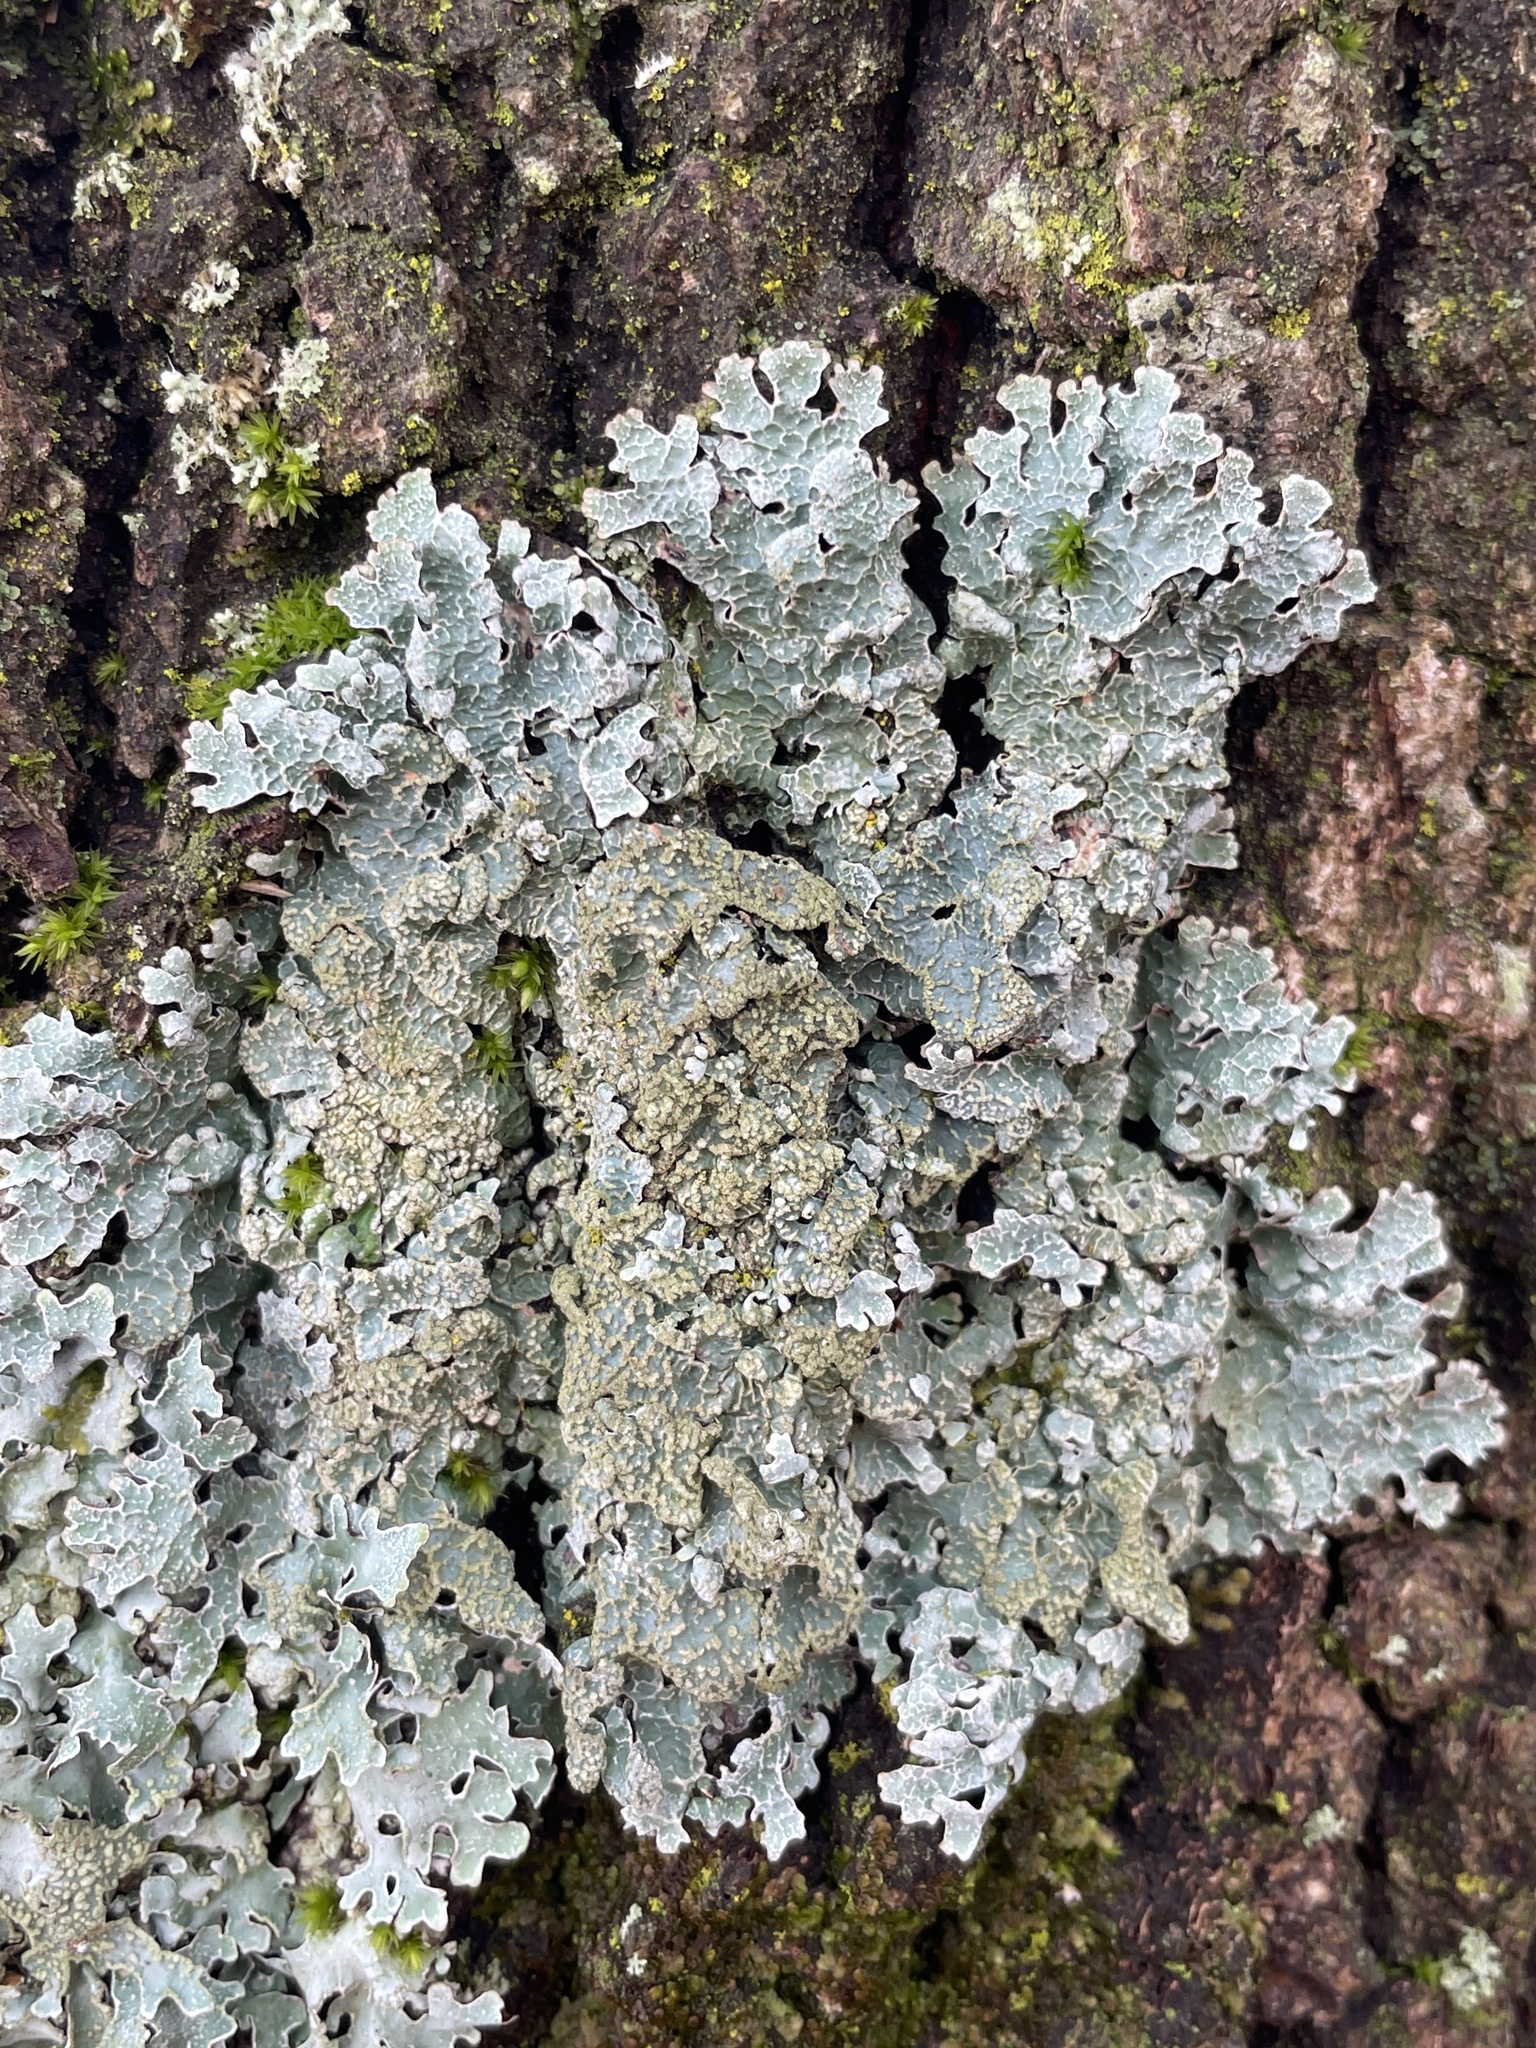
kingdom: Fungi
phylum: Ascomycota
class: Lecanoromycetes
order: Lecanorales
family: Parmeliaceae
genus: Parmelia
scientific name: Parmelia sulcata
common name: Netted shield lichen
